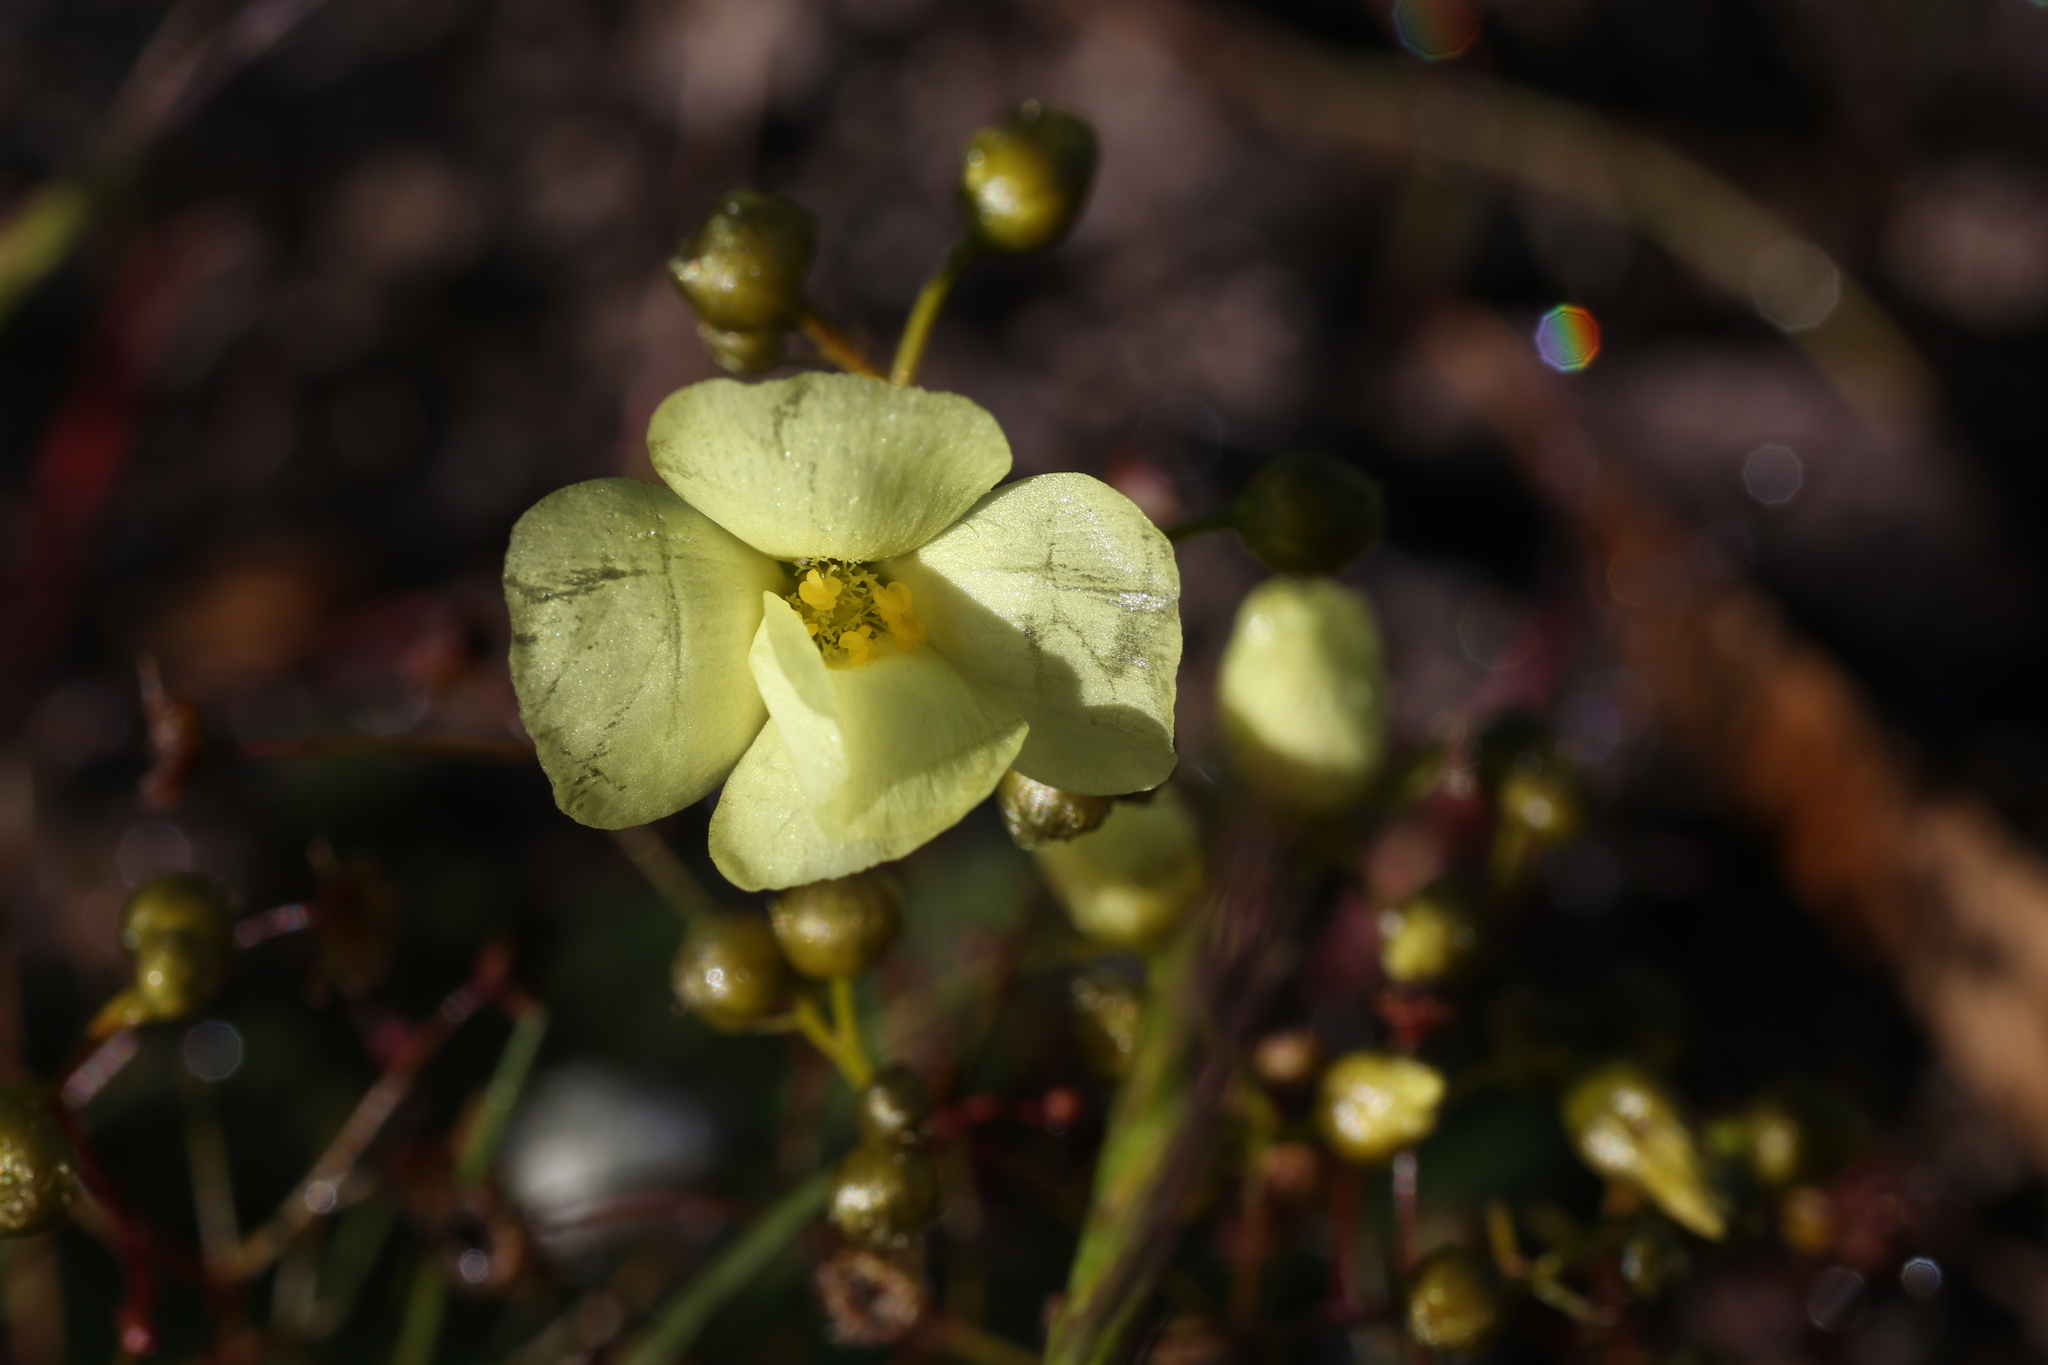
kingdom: Plantae
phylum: Tracheophyta
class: Magnoliopsida
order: Caryophyllales
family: Droseraceae
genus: Drosera
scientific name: Drosera zigzagia
